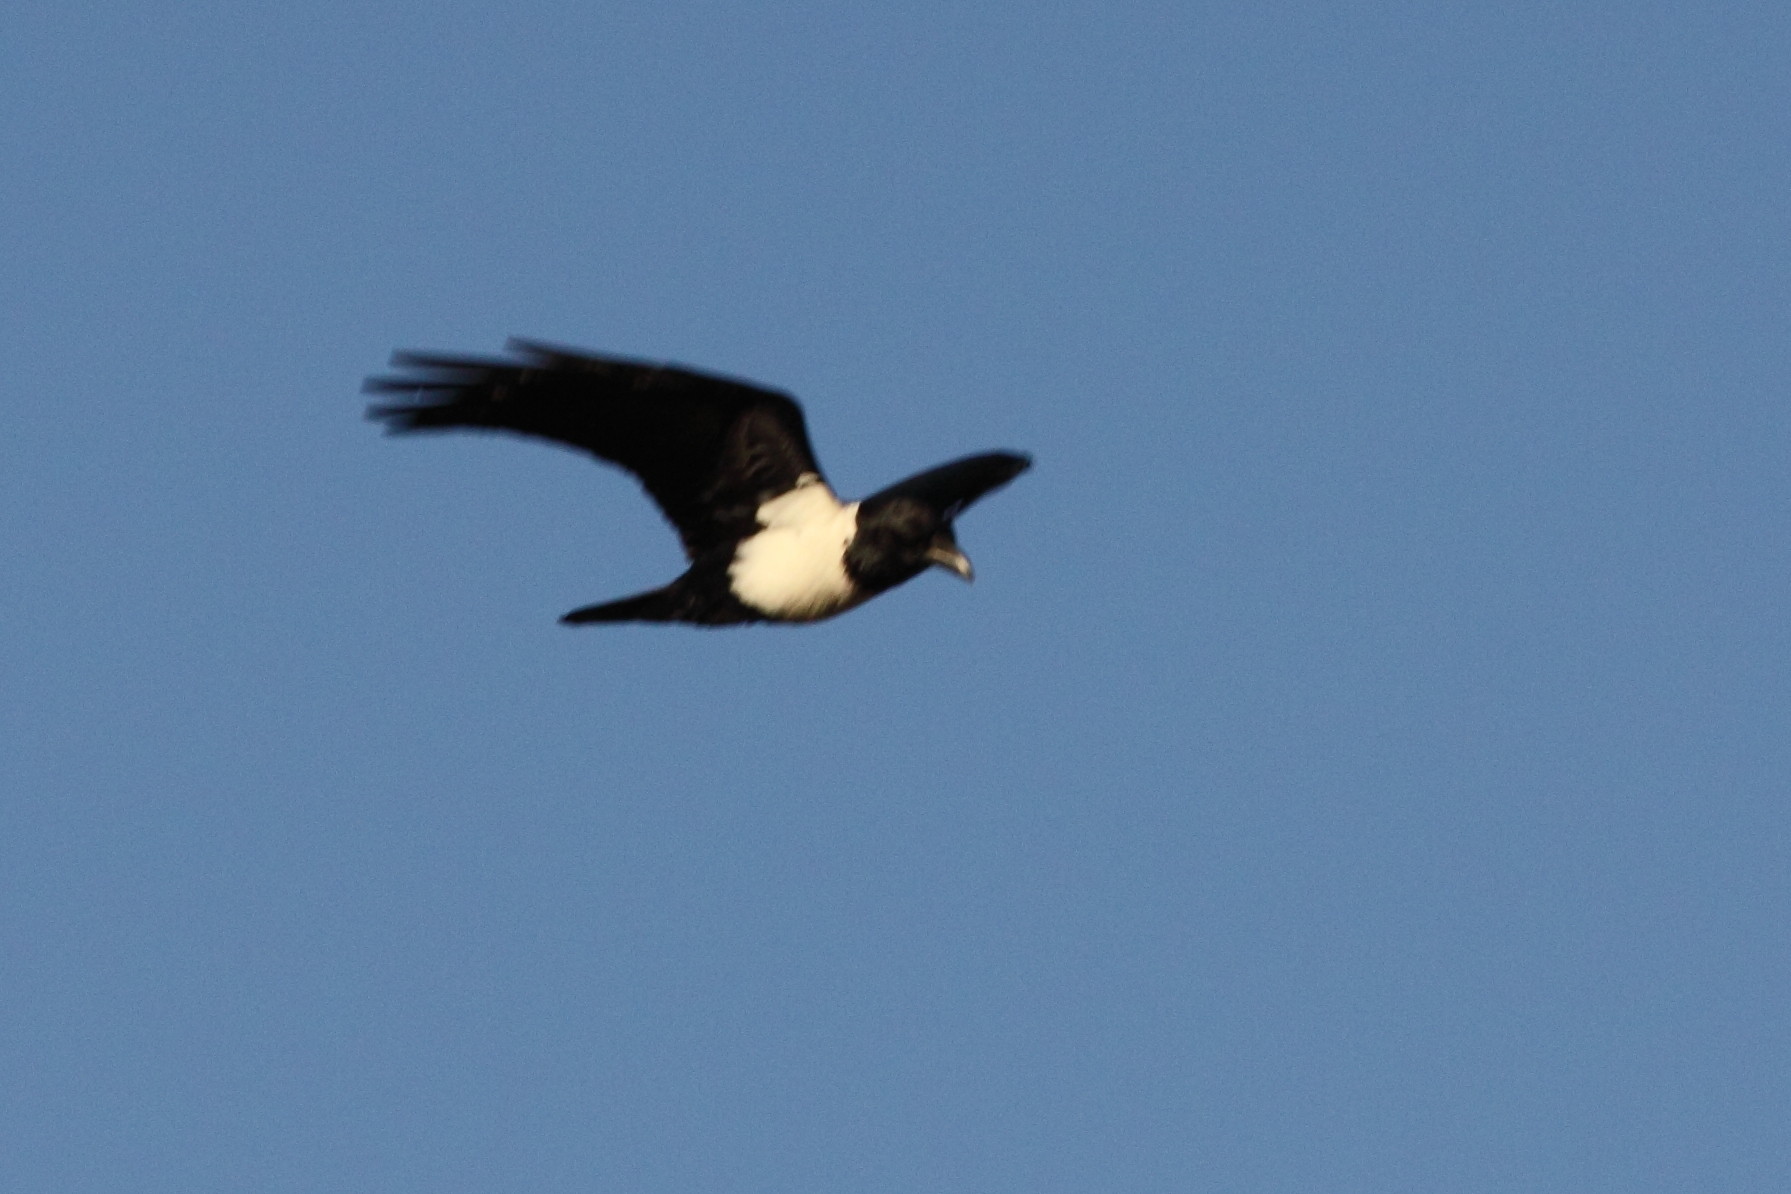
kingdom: Animalia
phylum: Chordata
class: Aves
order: Passeriformes
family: Corvidae
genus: Corvus
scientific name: Corvus albus
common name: Pied crow
